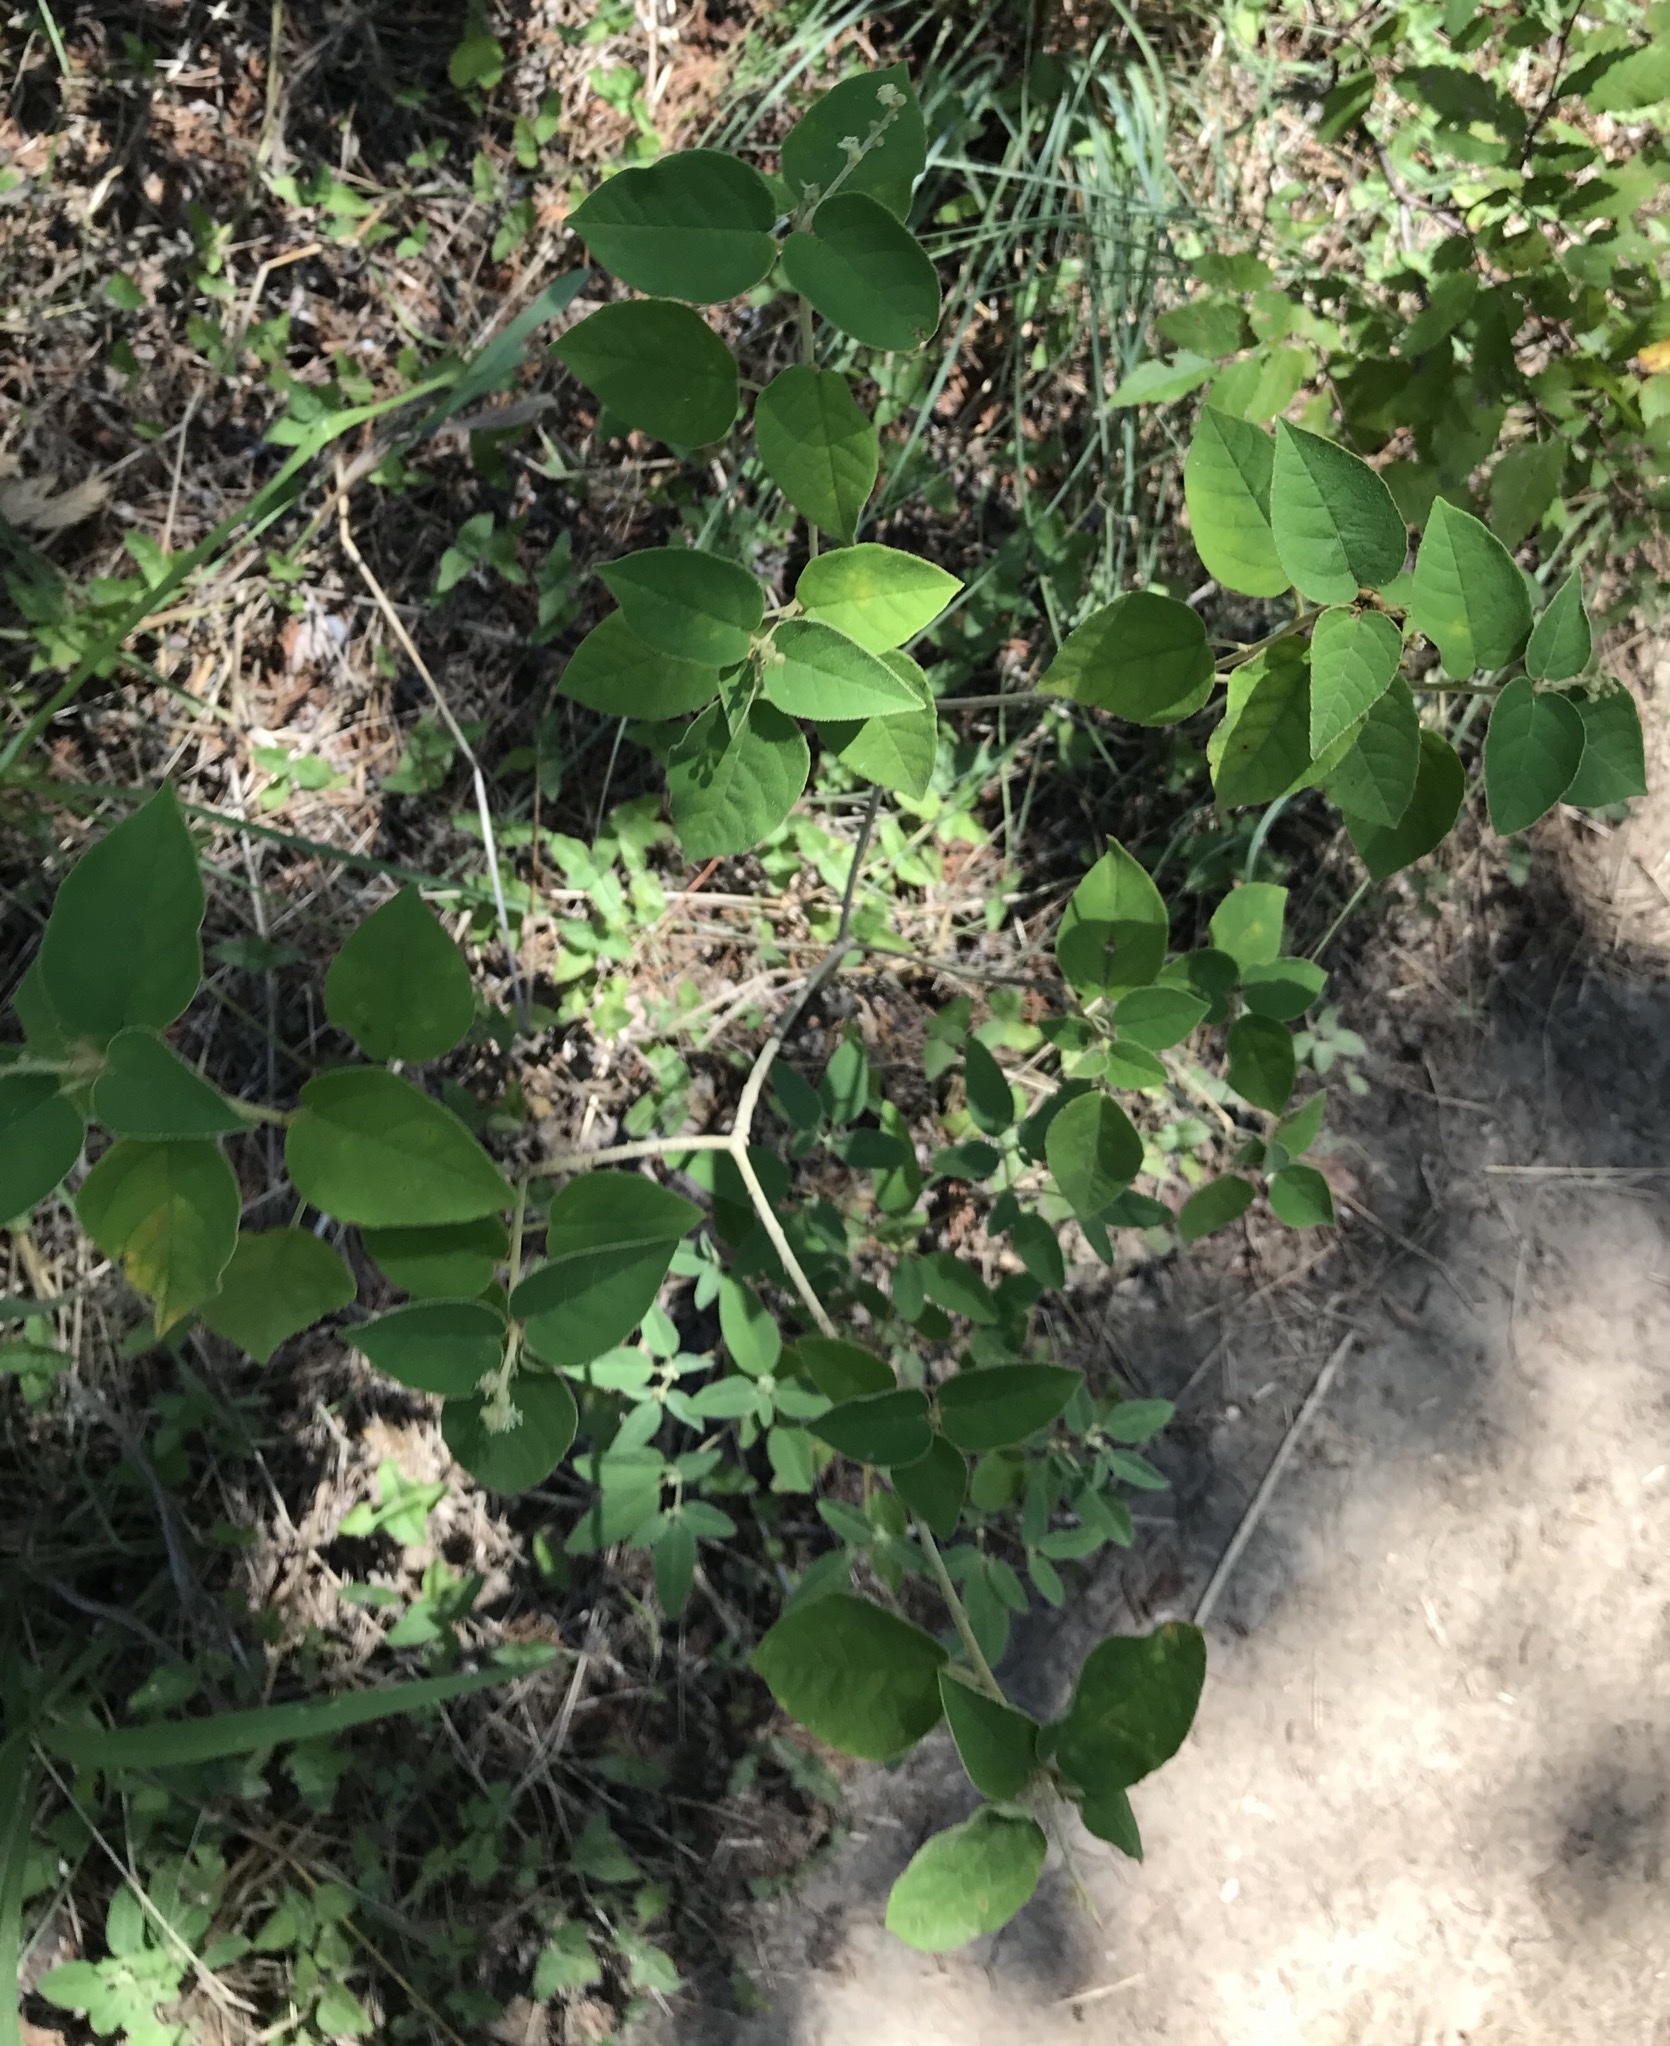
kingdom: Plantae
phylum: Tracheophyta
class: Magnoliopsida
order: Malpighiales
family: Euphorbiaceae
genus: Croton
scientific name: Croton fruticulosus
